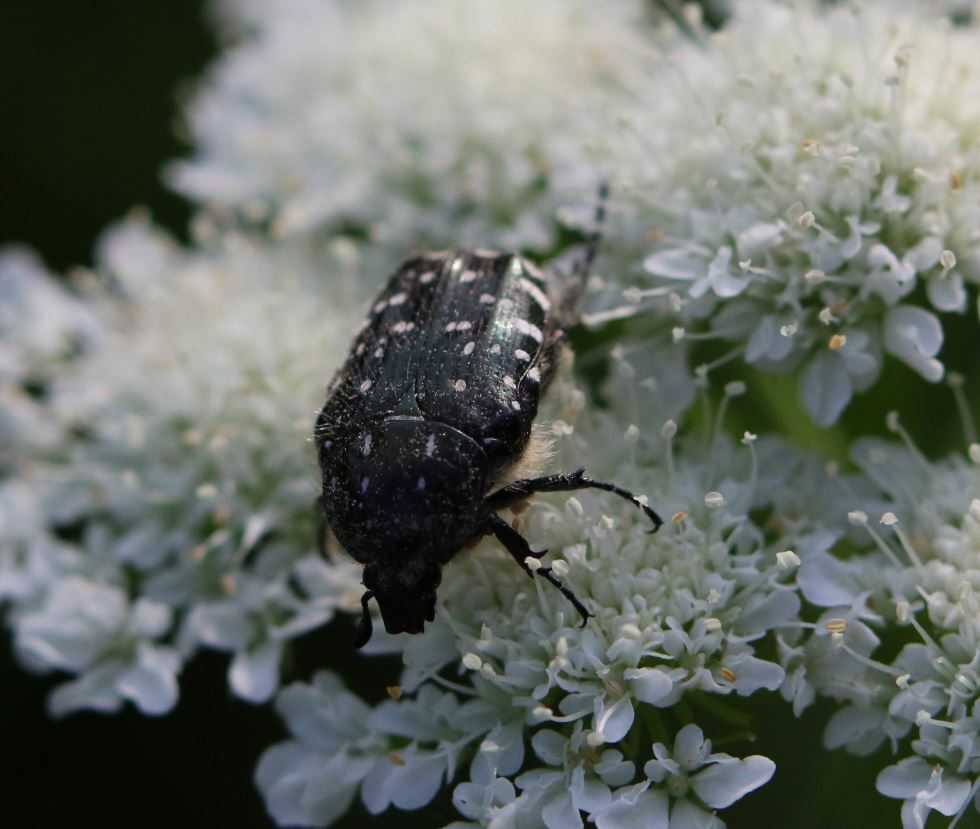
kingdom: Animalia
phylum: Arthropoda
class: Insecta
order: Coleoptera
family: Scarabaeidae
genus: Oxythyrea
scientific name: Oxythyrea funesta
